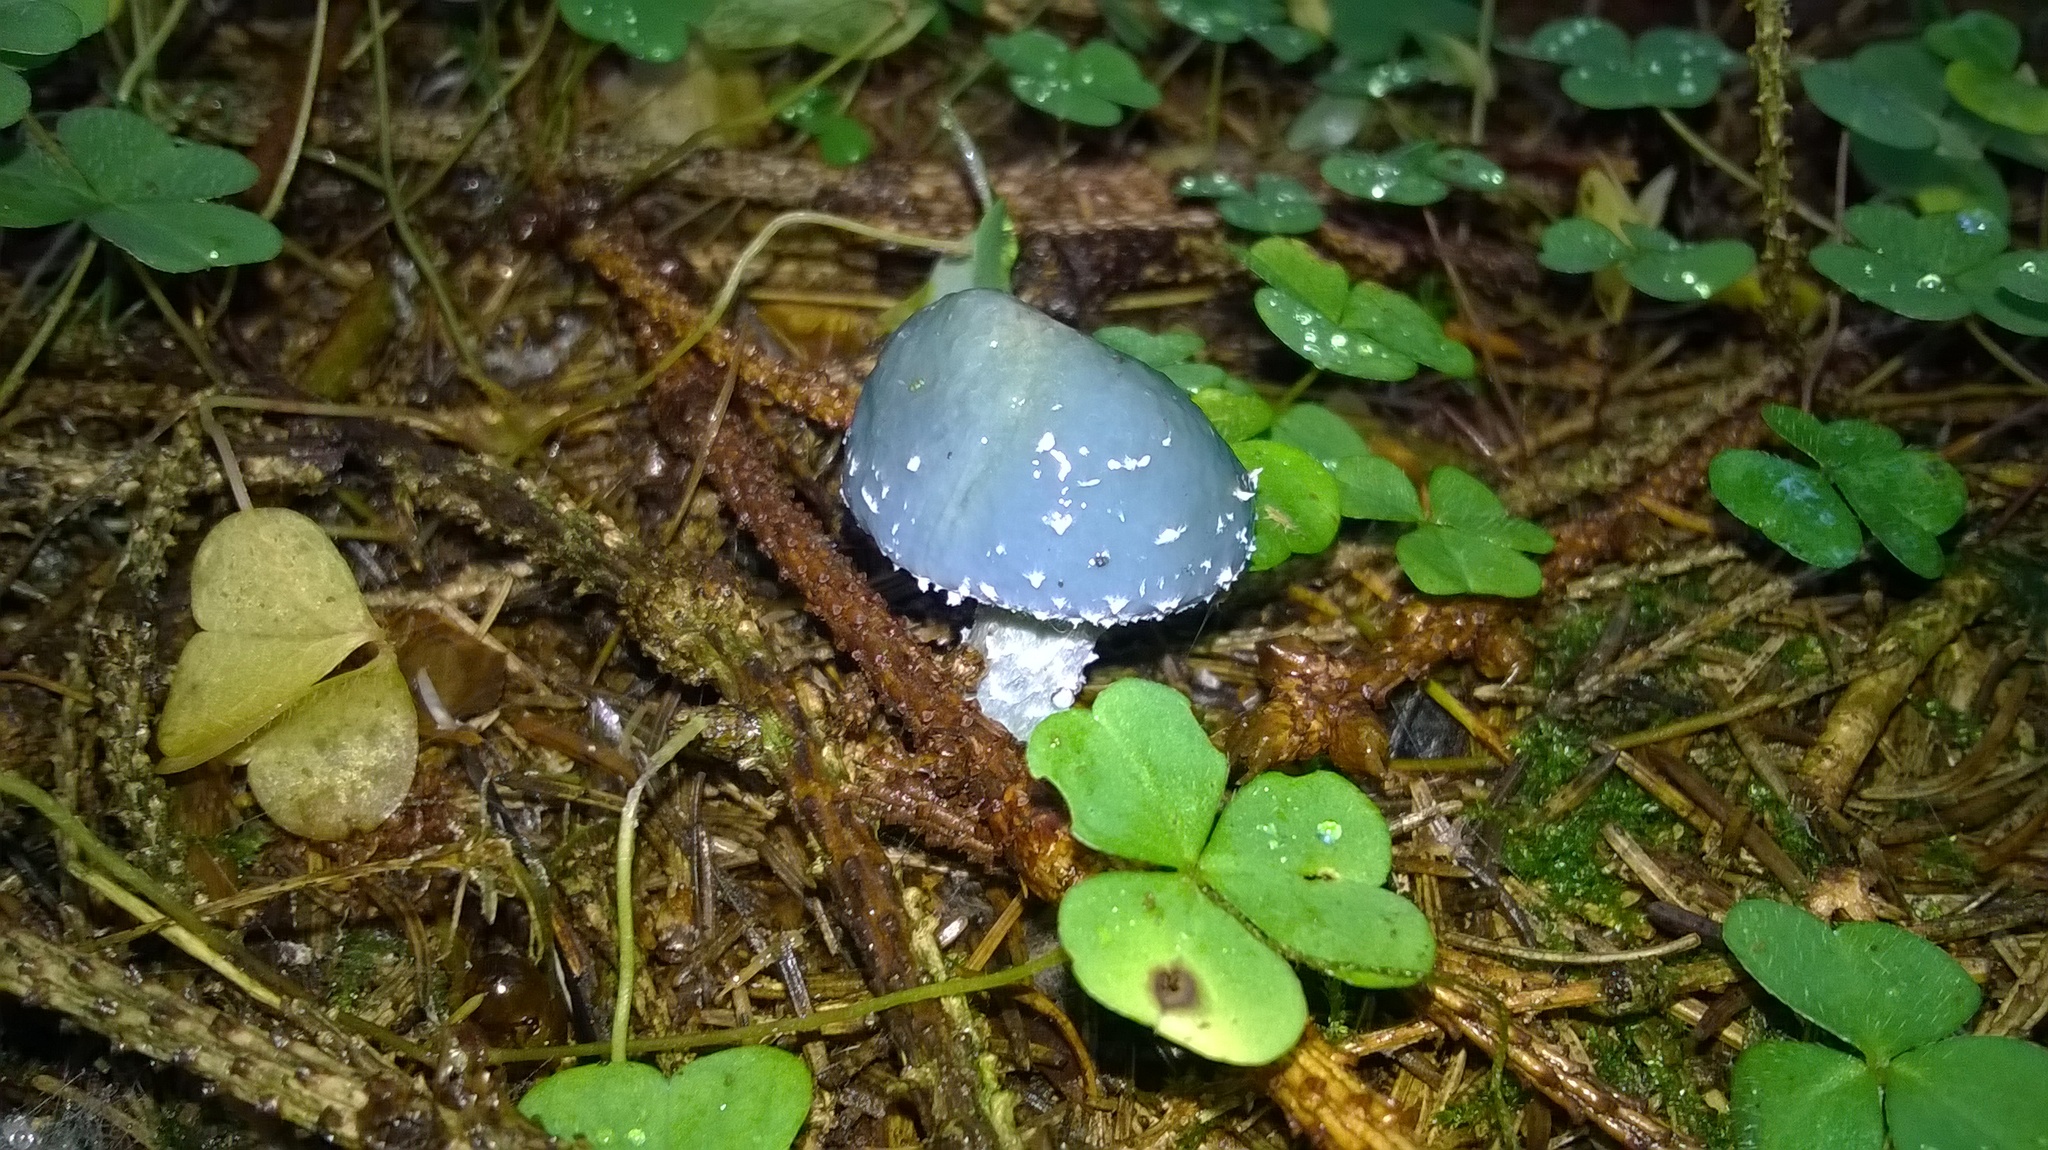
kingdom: Fungi
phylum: Basidiomycota
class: Agaricomycetes
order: Agaricales
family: Strophariaceae
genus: Stropharia
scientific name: Stropharia aeruginosa
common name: Verdigris roundhead
